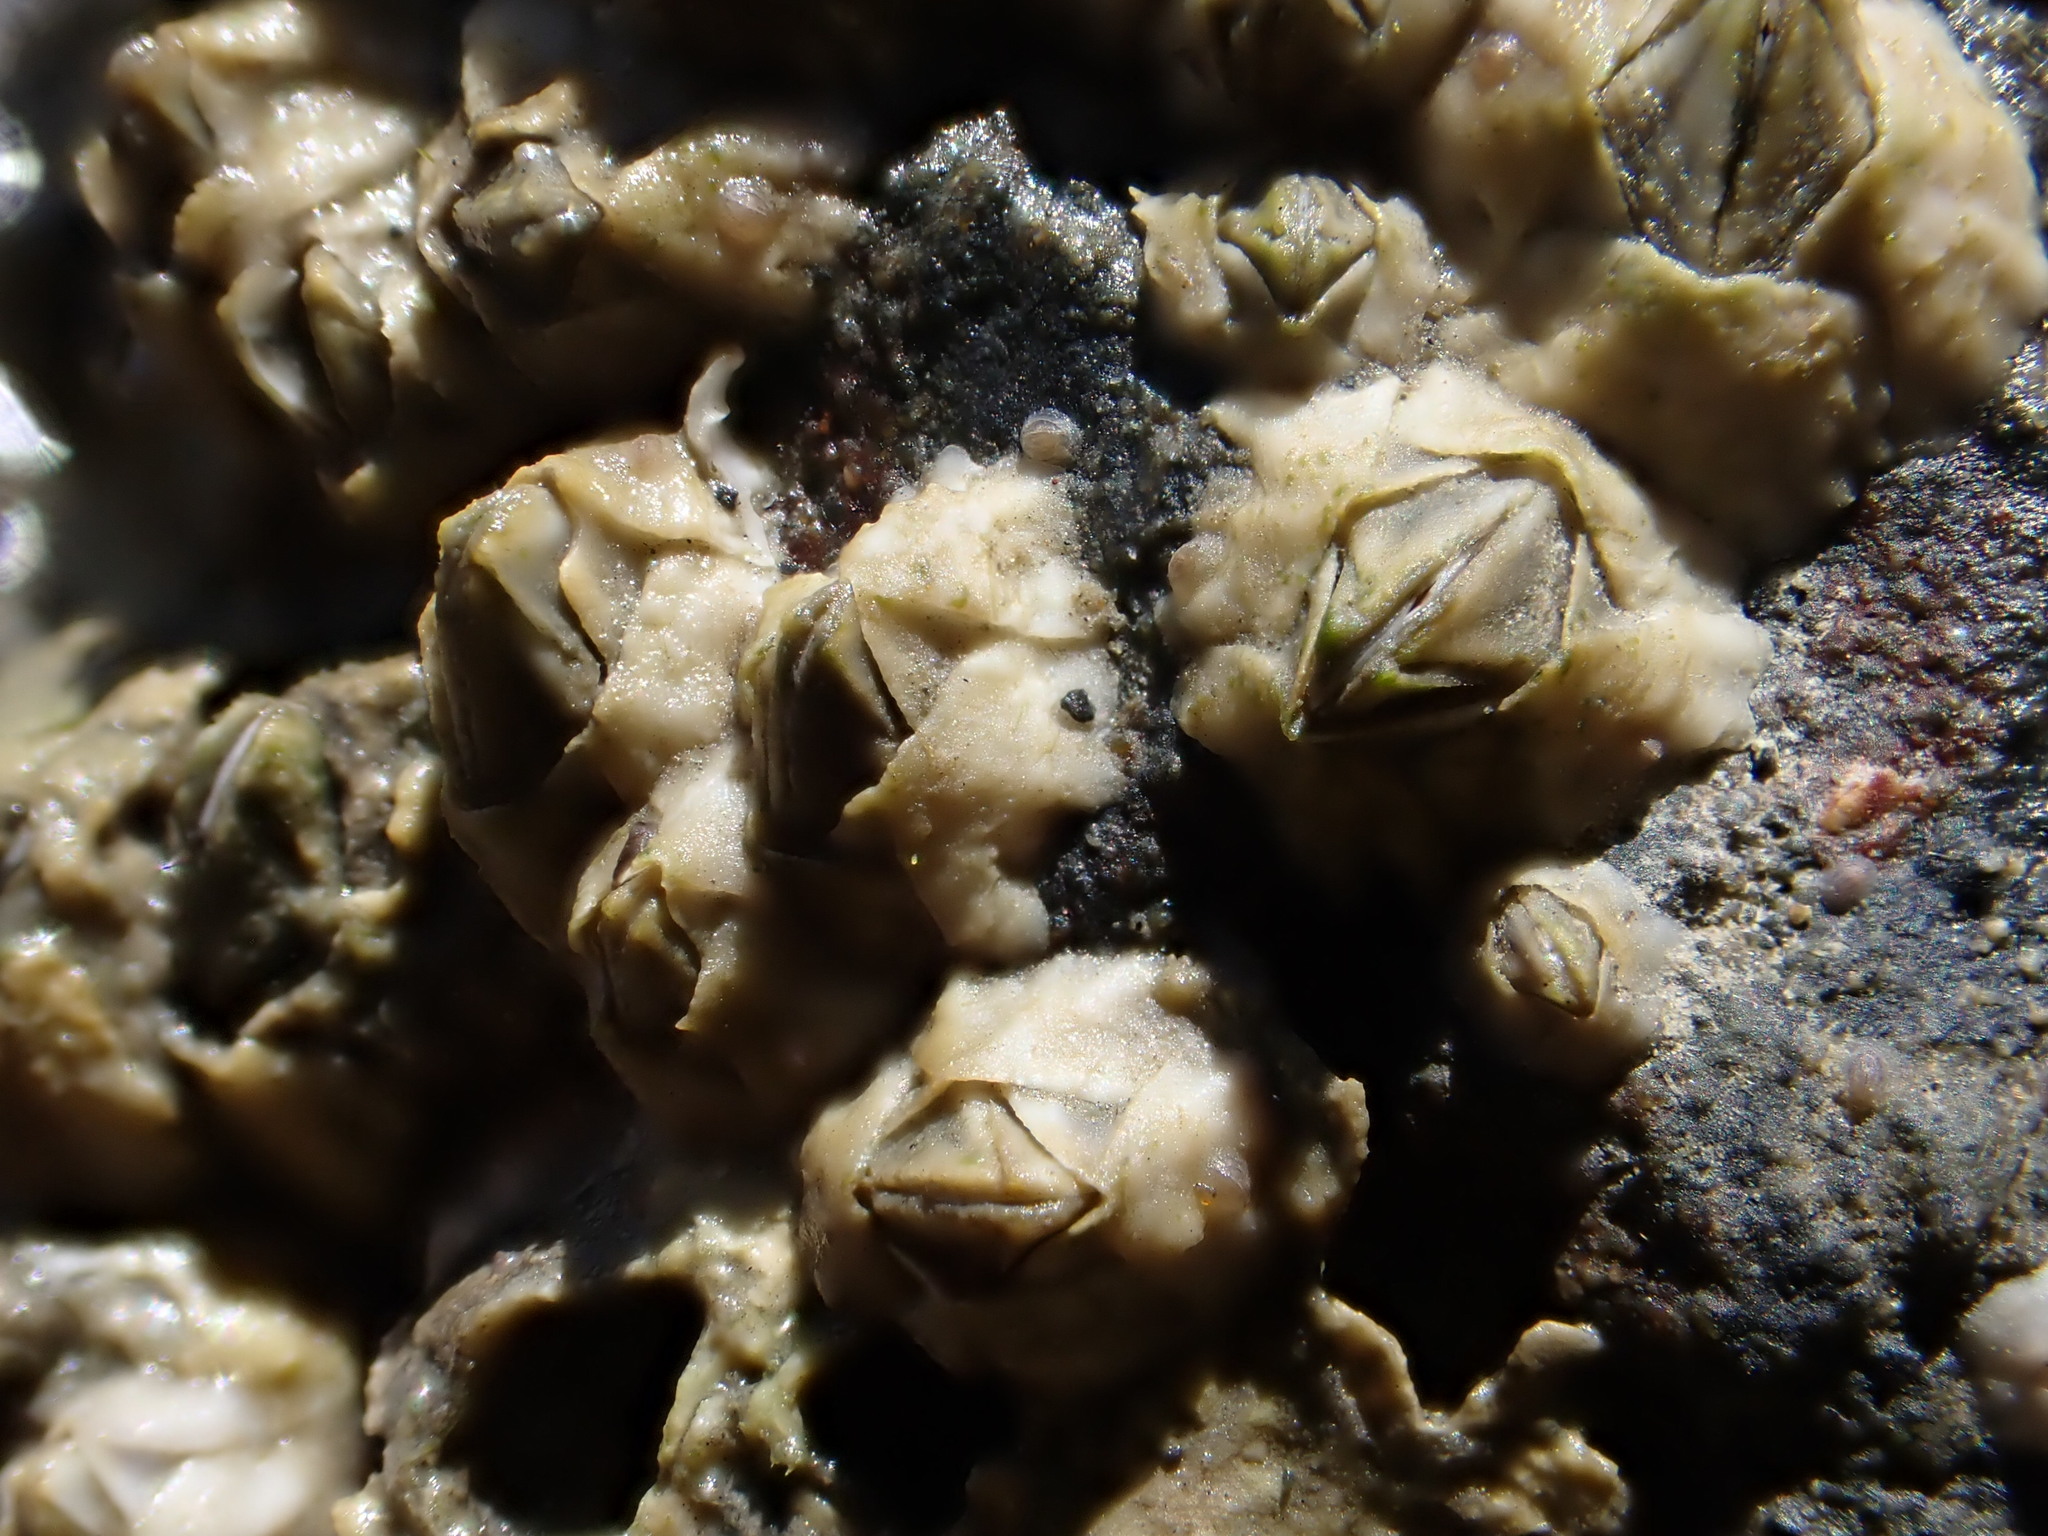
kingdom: Animalia
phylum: Arthropoda
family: Elminiidae
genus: Austrominius
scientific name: Austrominius modestus
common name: Australasian barnacle
